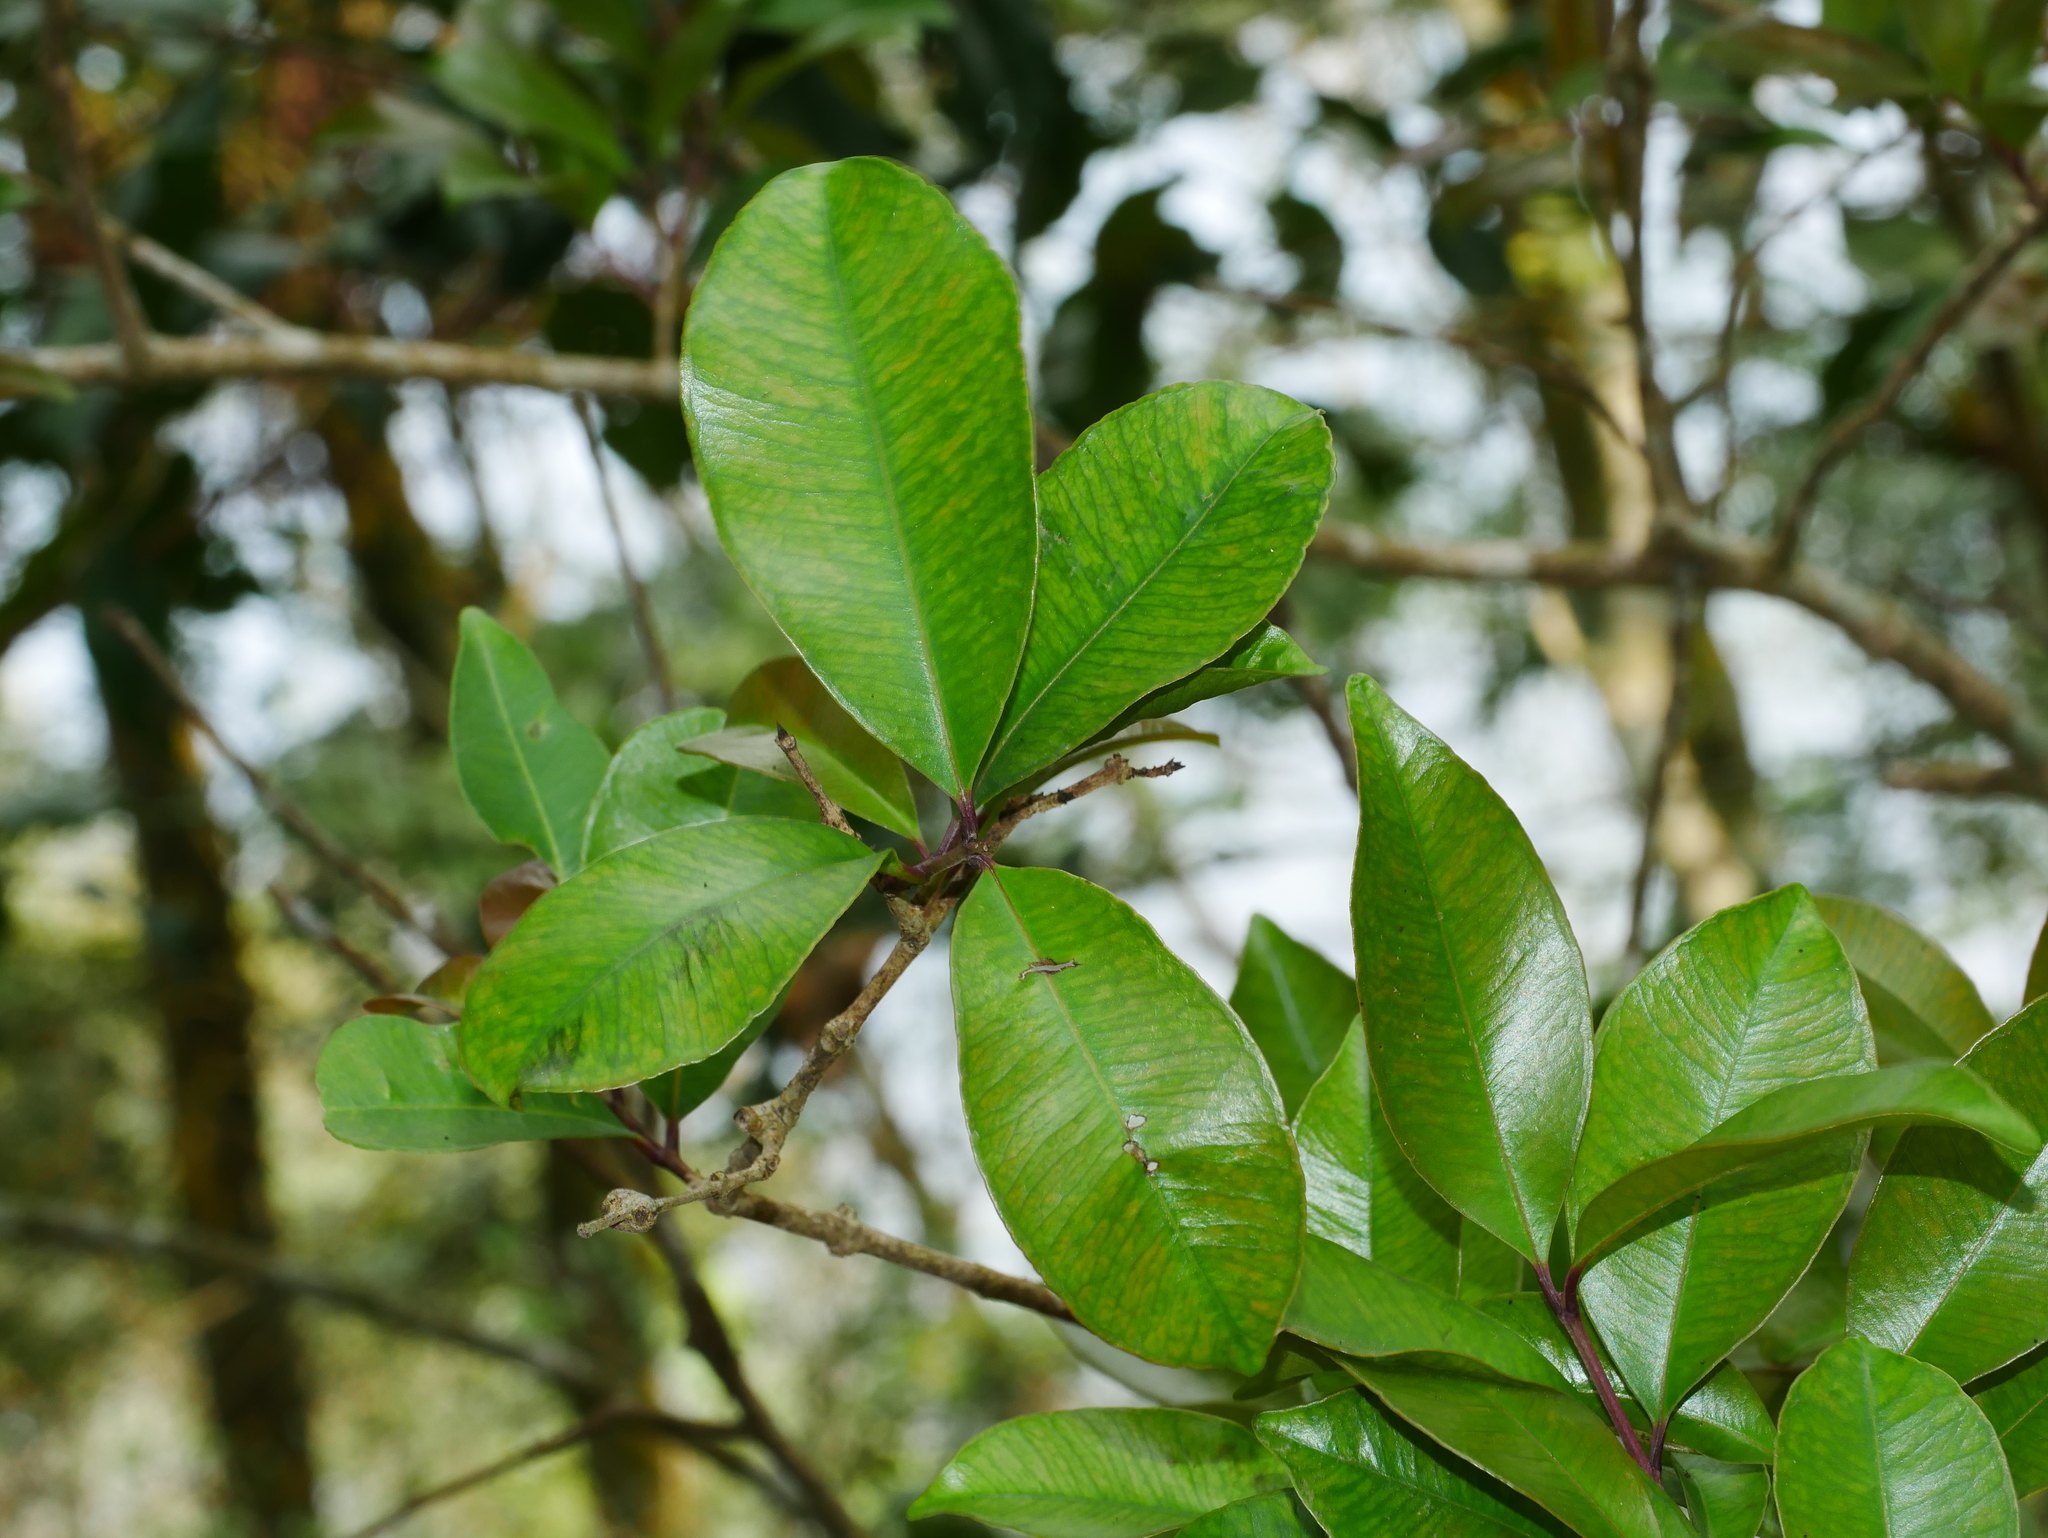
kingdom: Plantae
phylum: Tracheophyta
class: Magnoliopsida
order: Myrtales
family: Myrtaceae
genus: Syzygium
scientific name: Syzygium formosanum
